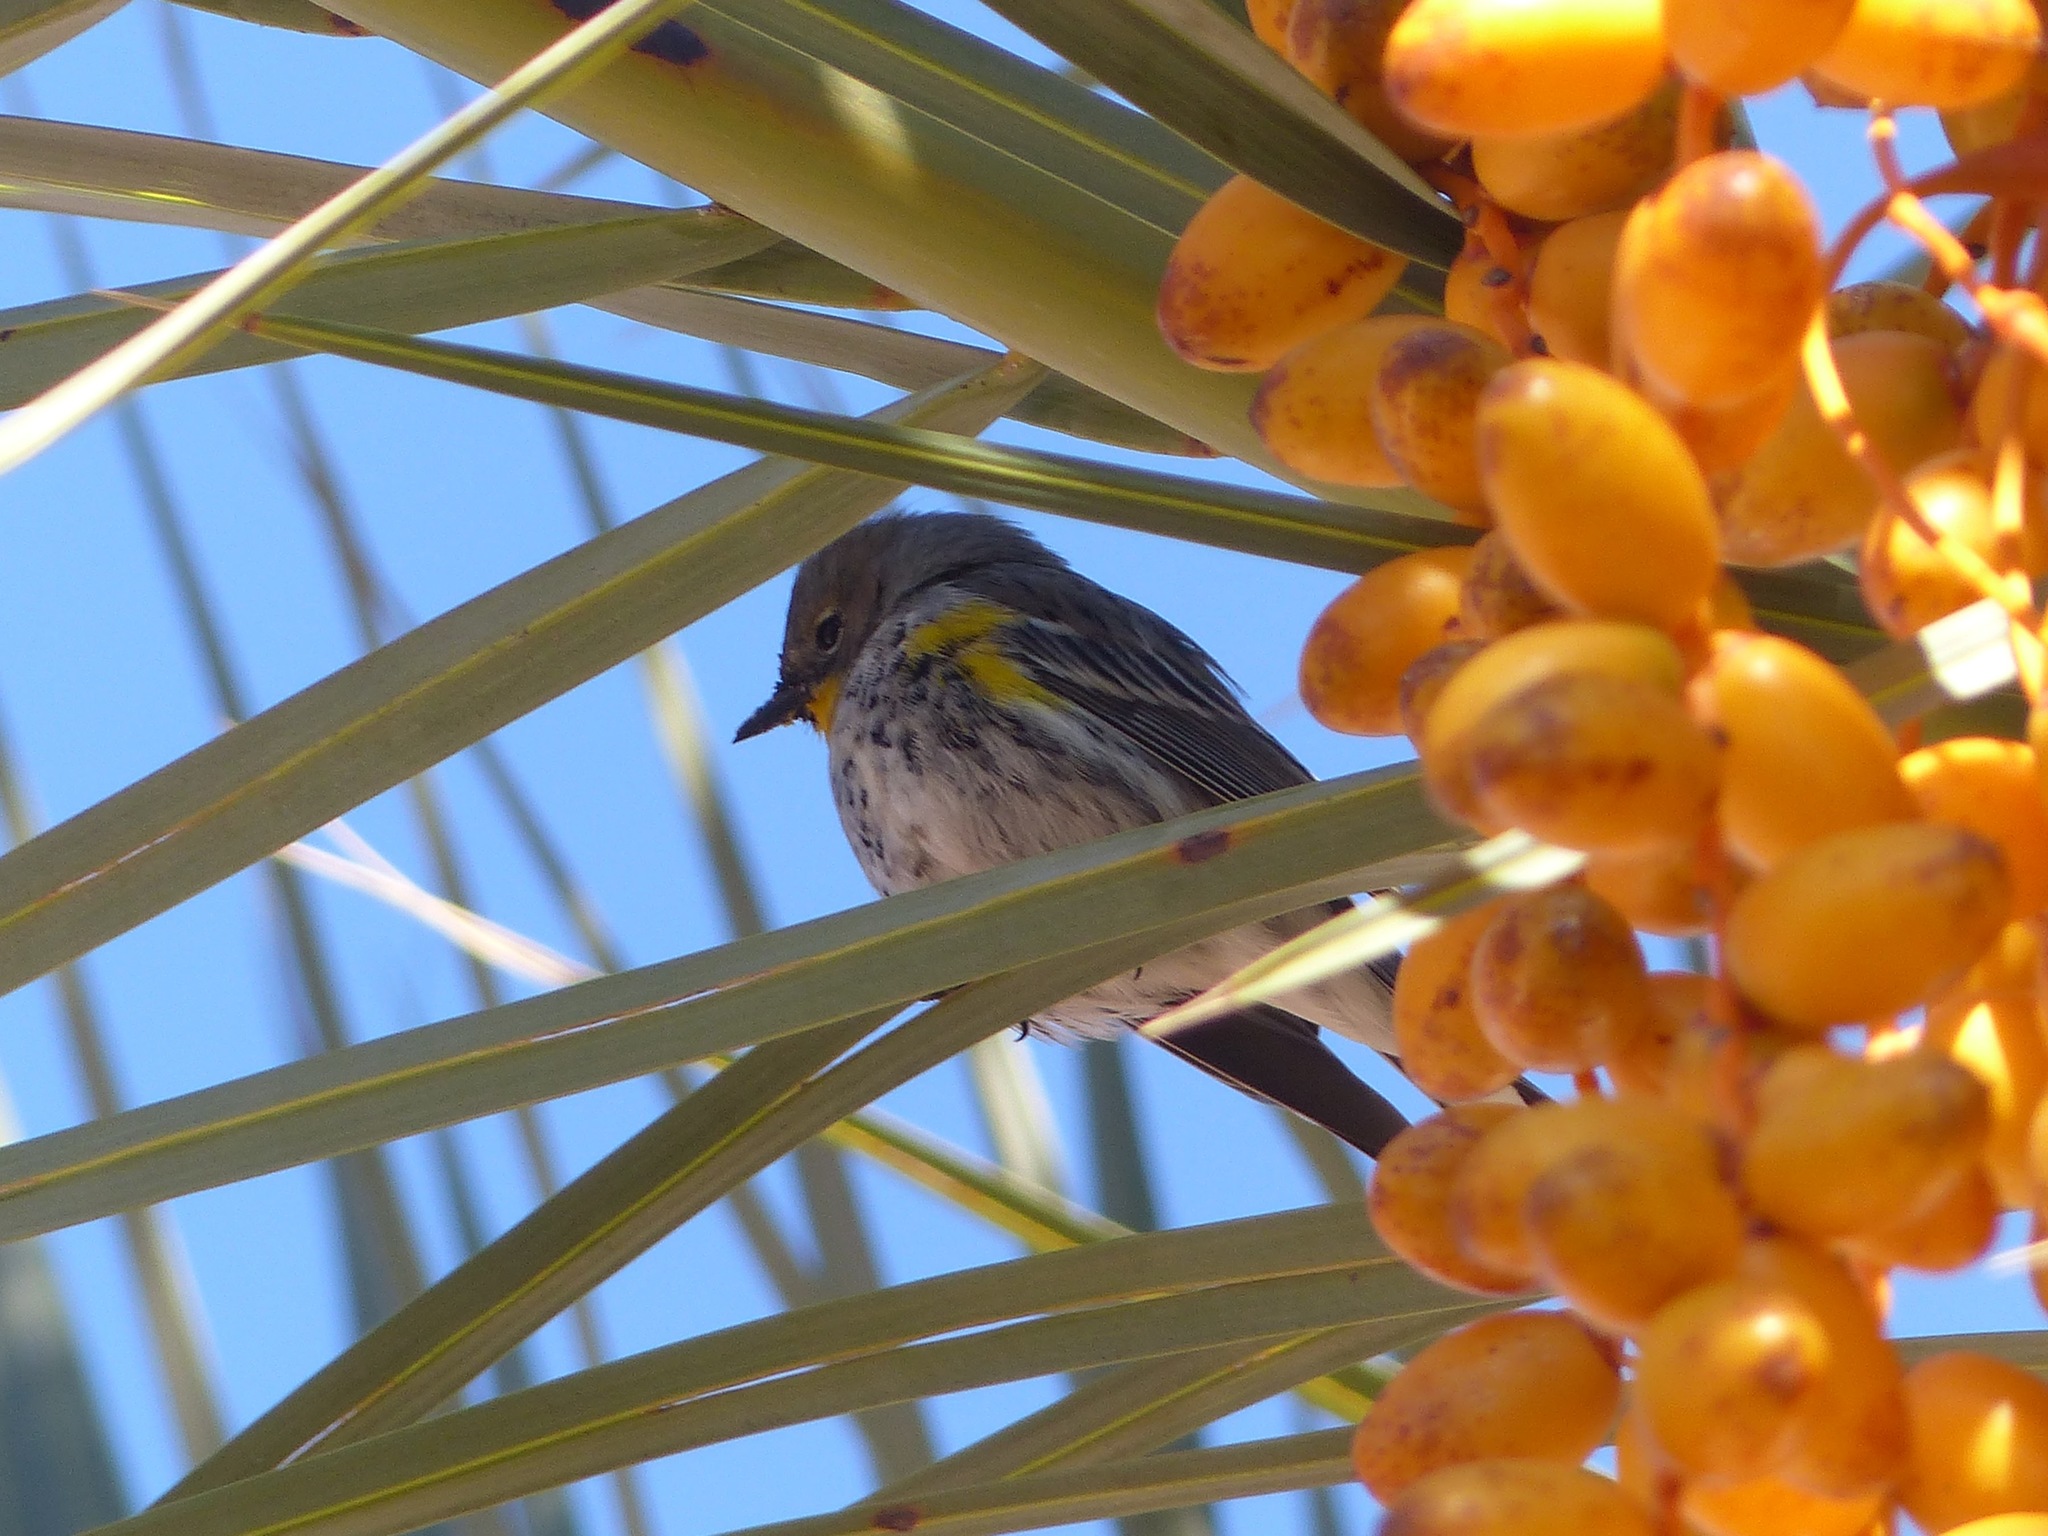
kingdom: Animalia
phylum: Chordata
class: Aves
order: Passeriformes
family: Parulidae
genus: Setophaga
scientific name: Setophaga auduboni
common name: Audubon's warbler
